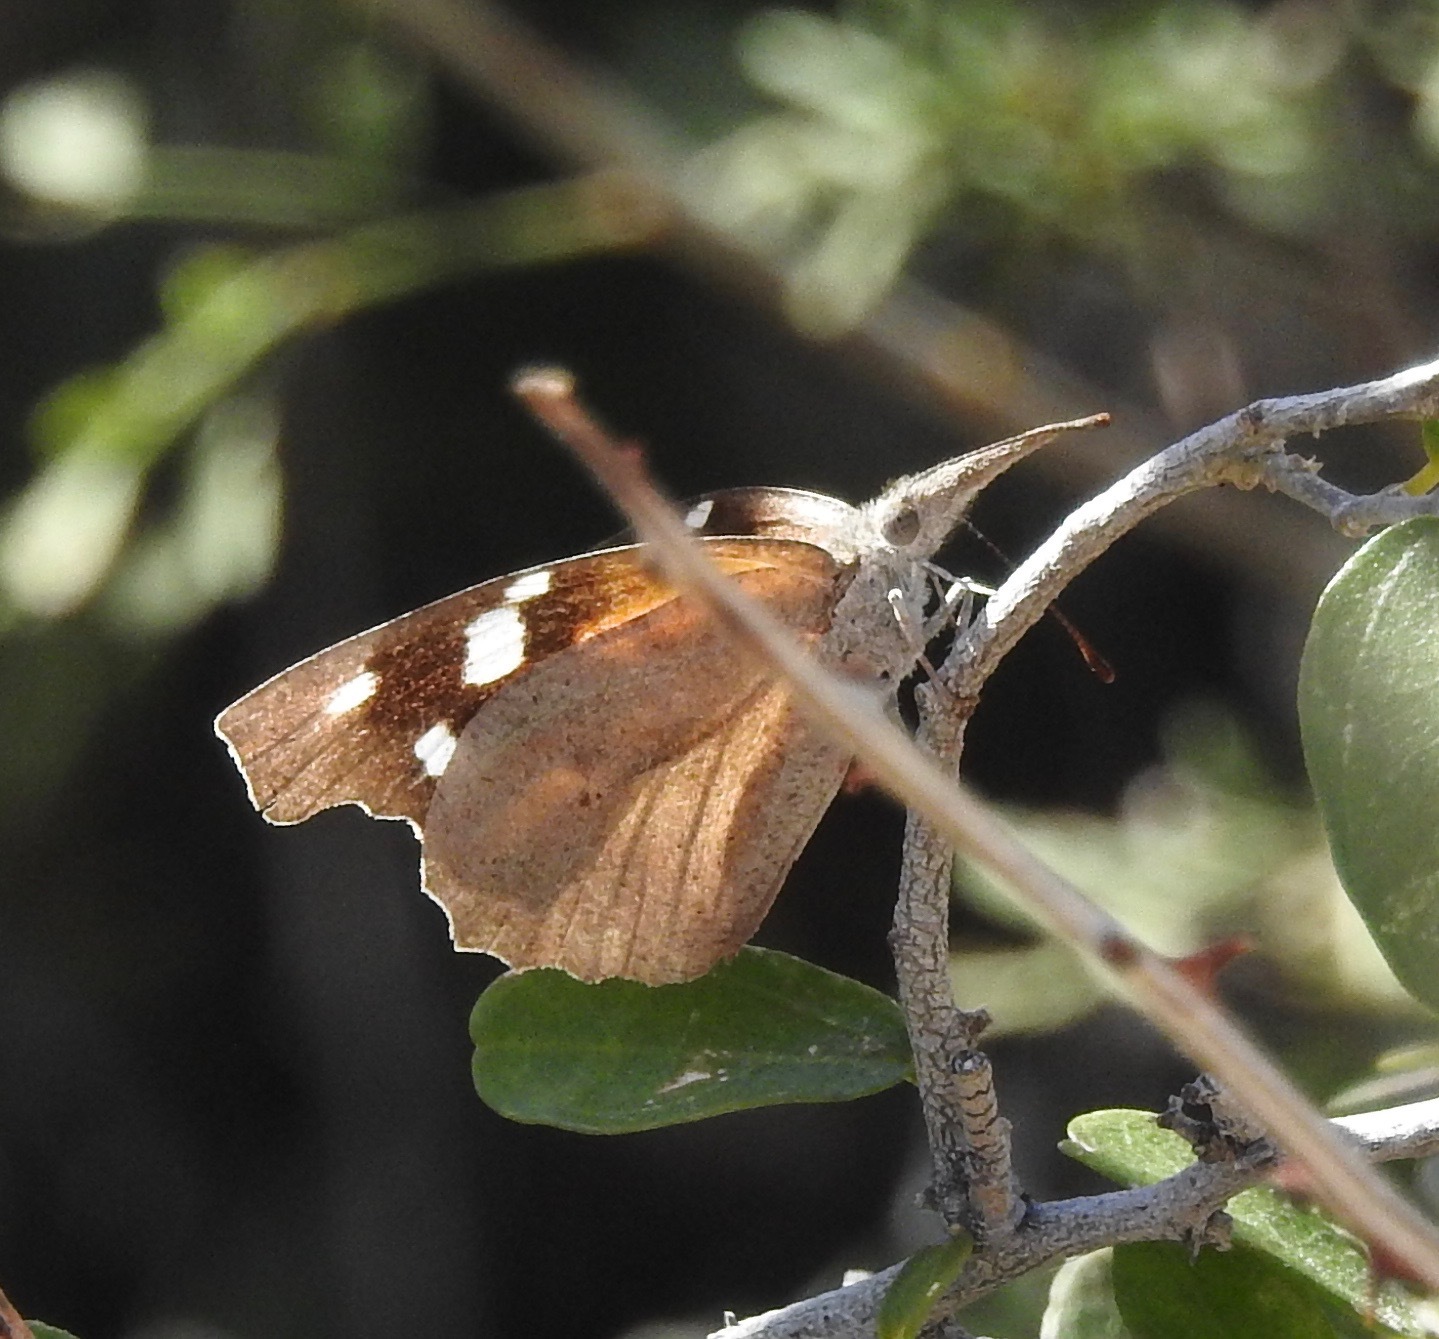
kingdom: Animalia
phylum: Arthropoda
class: Insecta
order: Lepidoptera
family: Nymphalidae
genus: Libytheana
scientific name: Libytheana carinenta
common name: American snout
